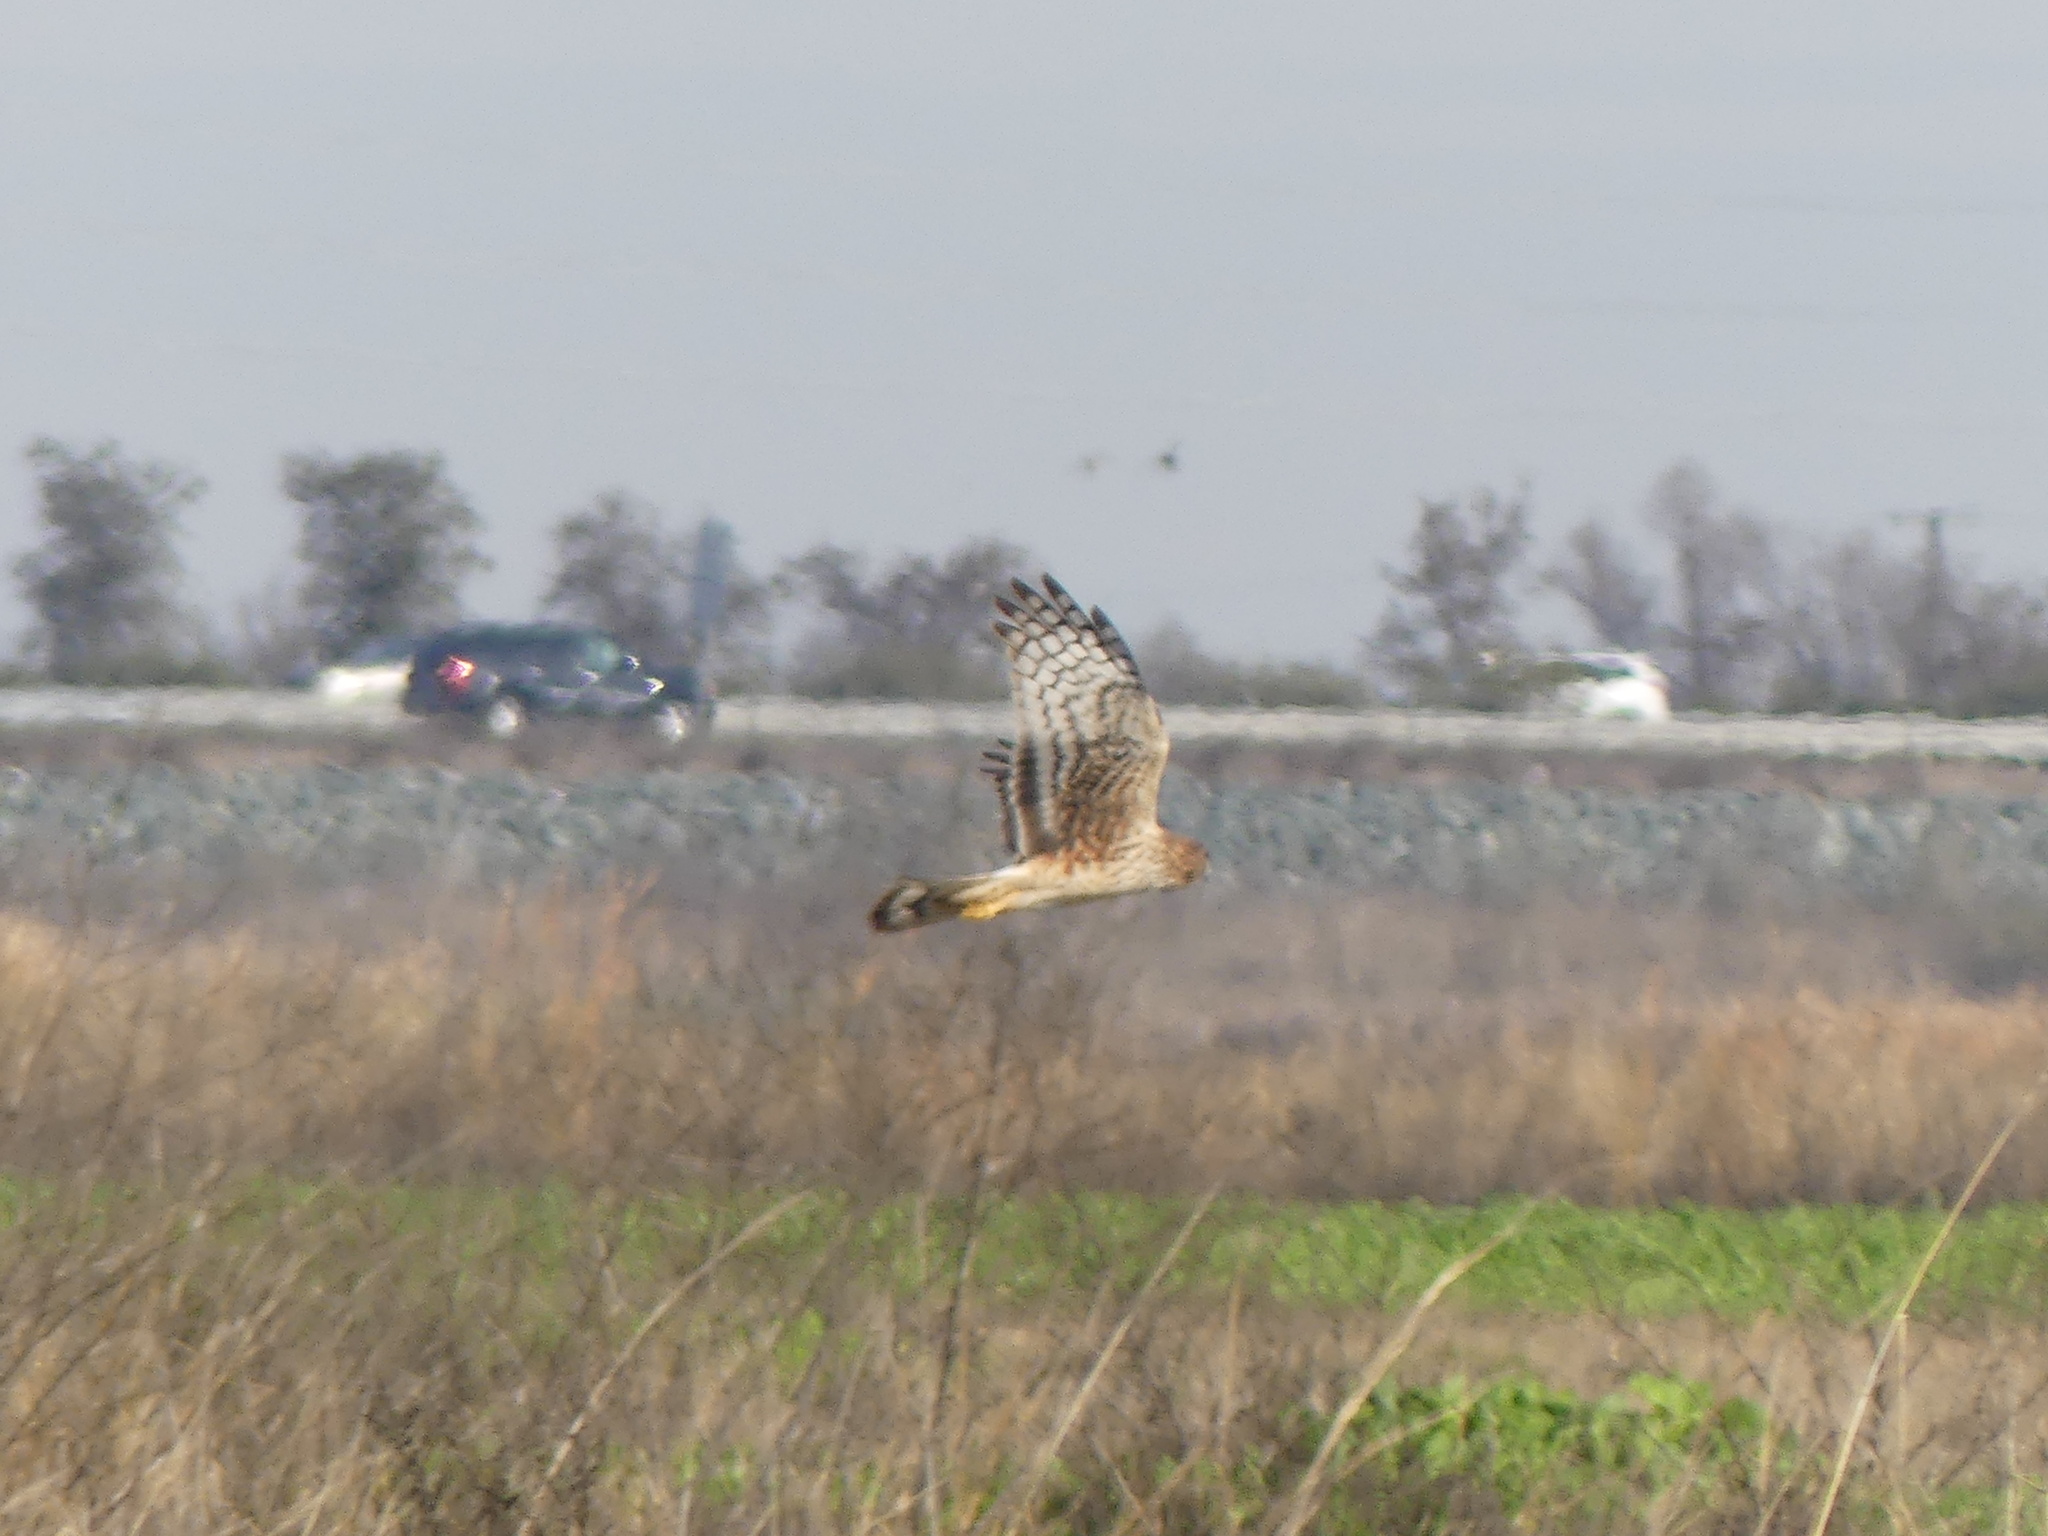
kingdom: Animalia
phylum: Chordata
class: Aves
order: Accipitriformes
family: Accipitridae
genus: Circus
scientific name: Circus cyaneus
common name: Hen harrier
